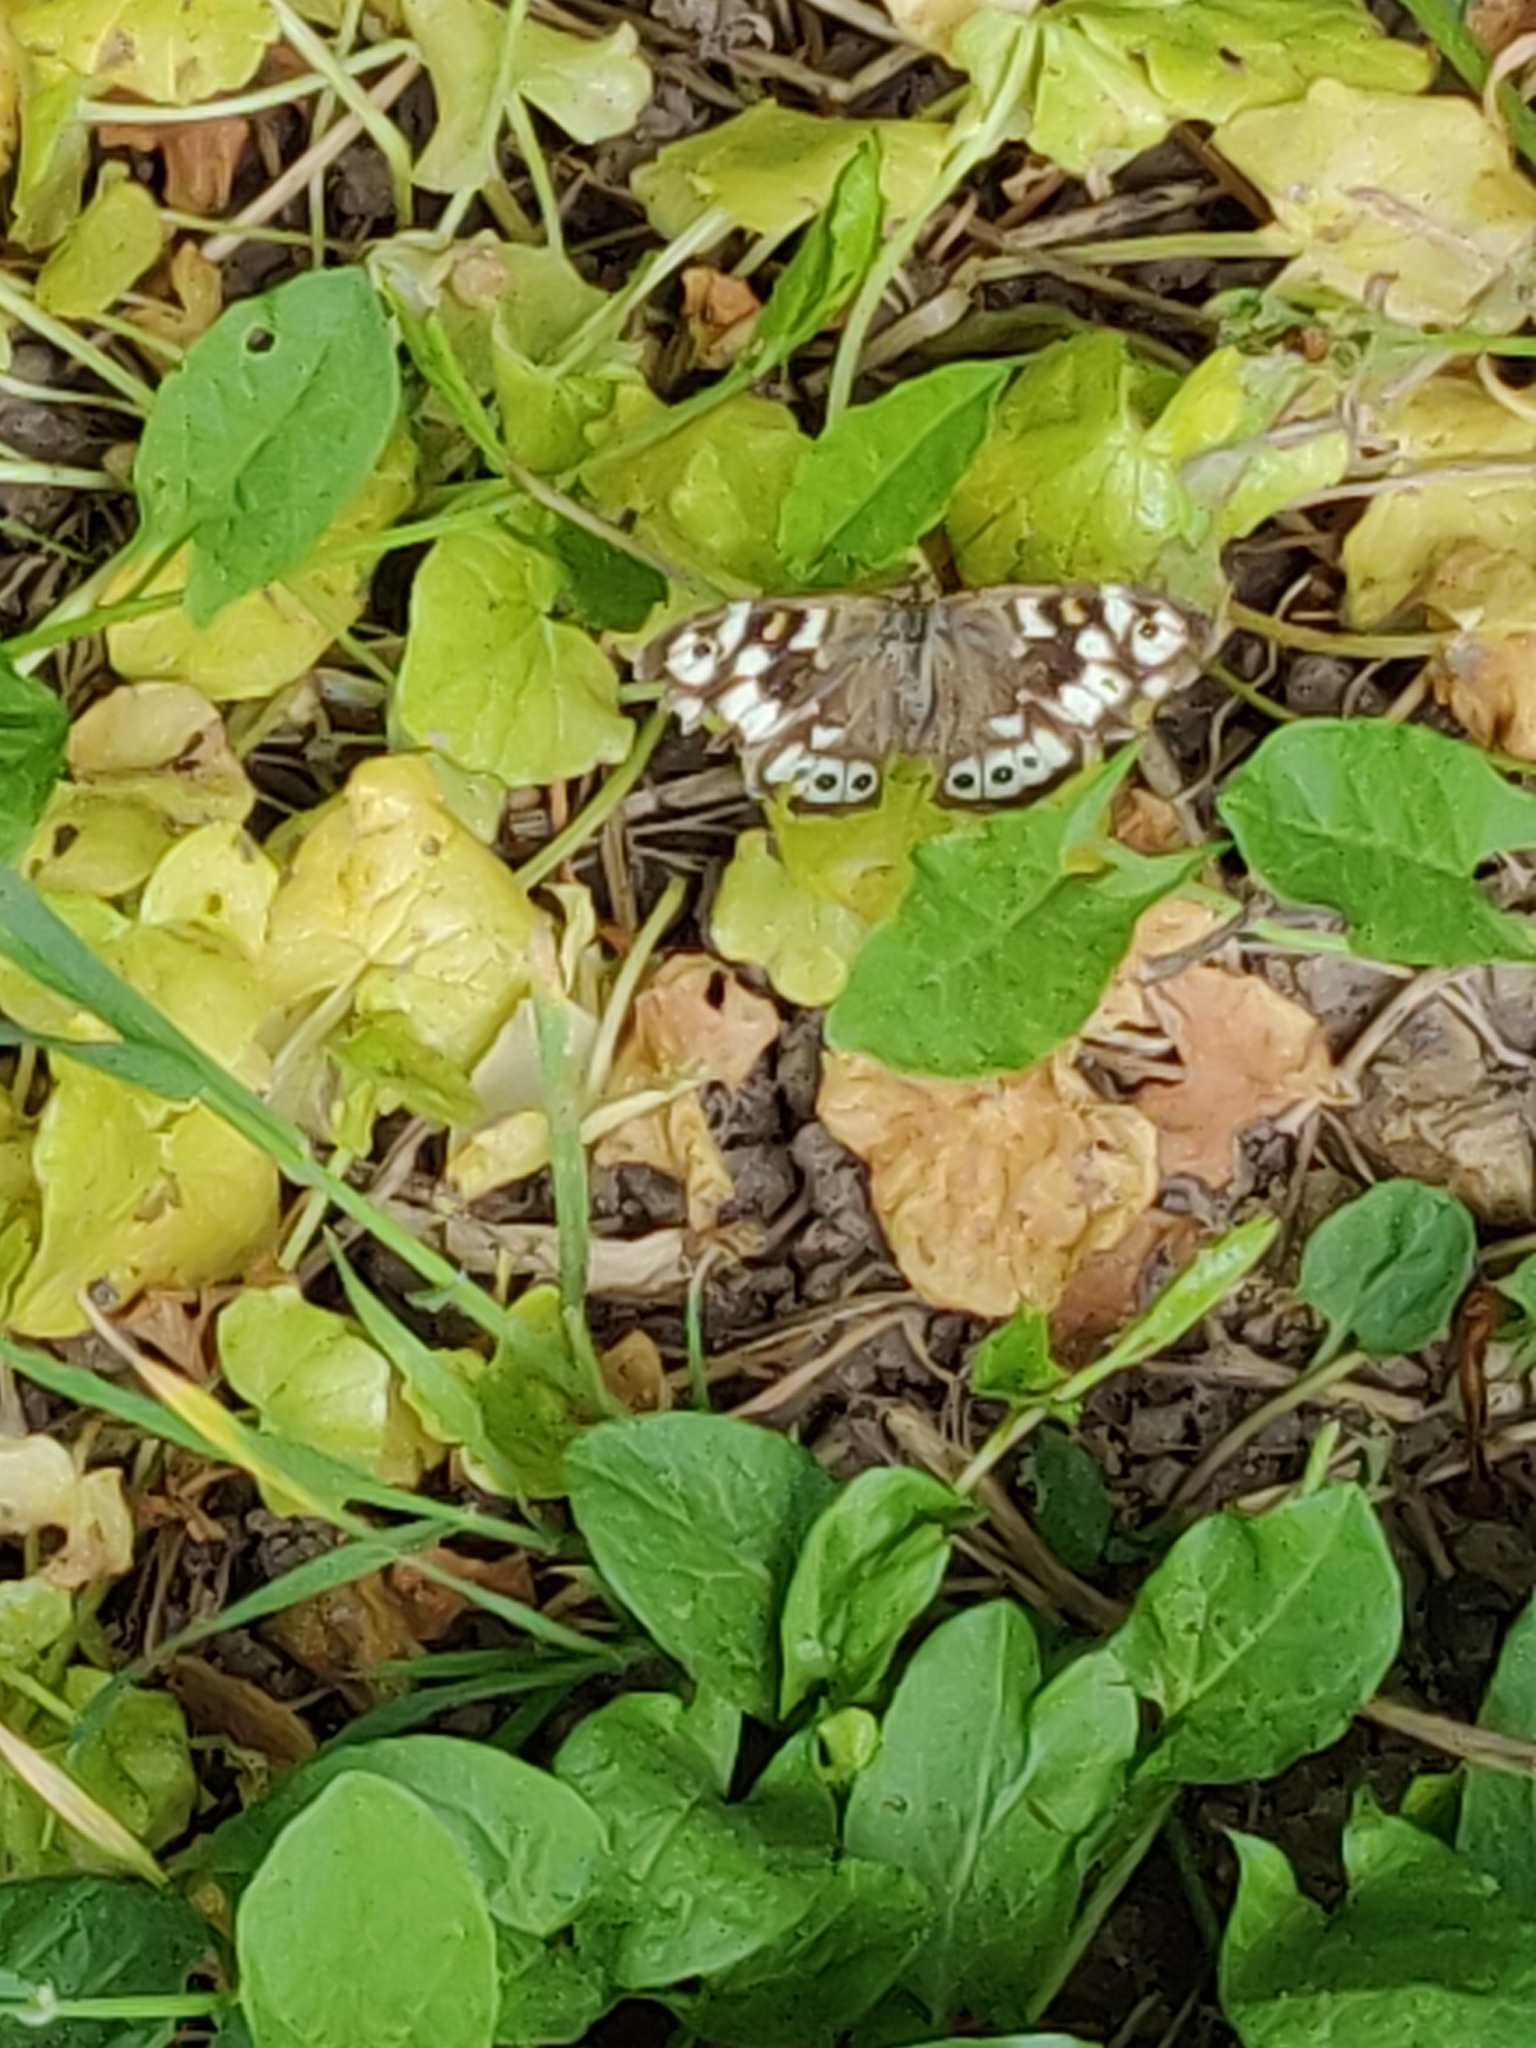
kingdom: Animalia
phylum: Arthropoda
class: Insecta
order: Lepidoptera
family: Nymphalidae
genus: Pararge
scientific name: Pararge aegeria
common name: Speckled wood
